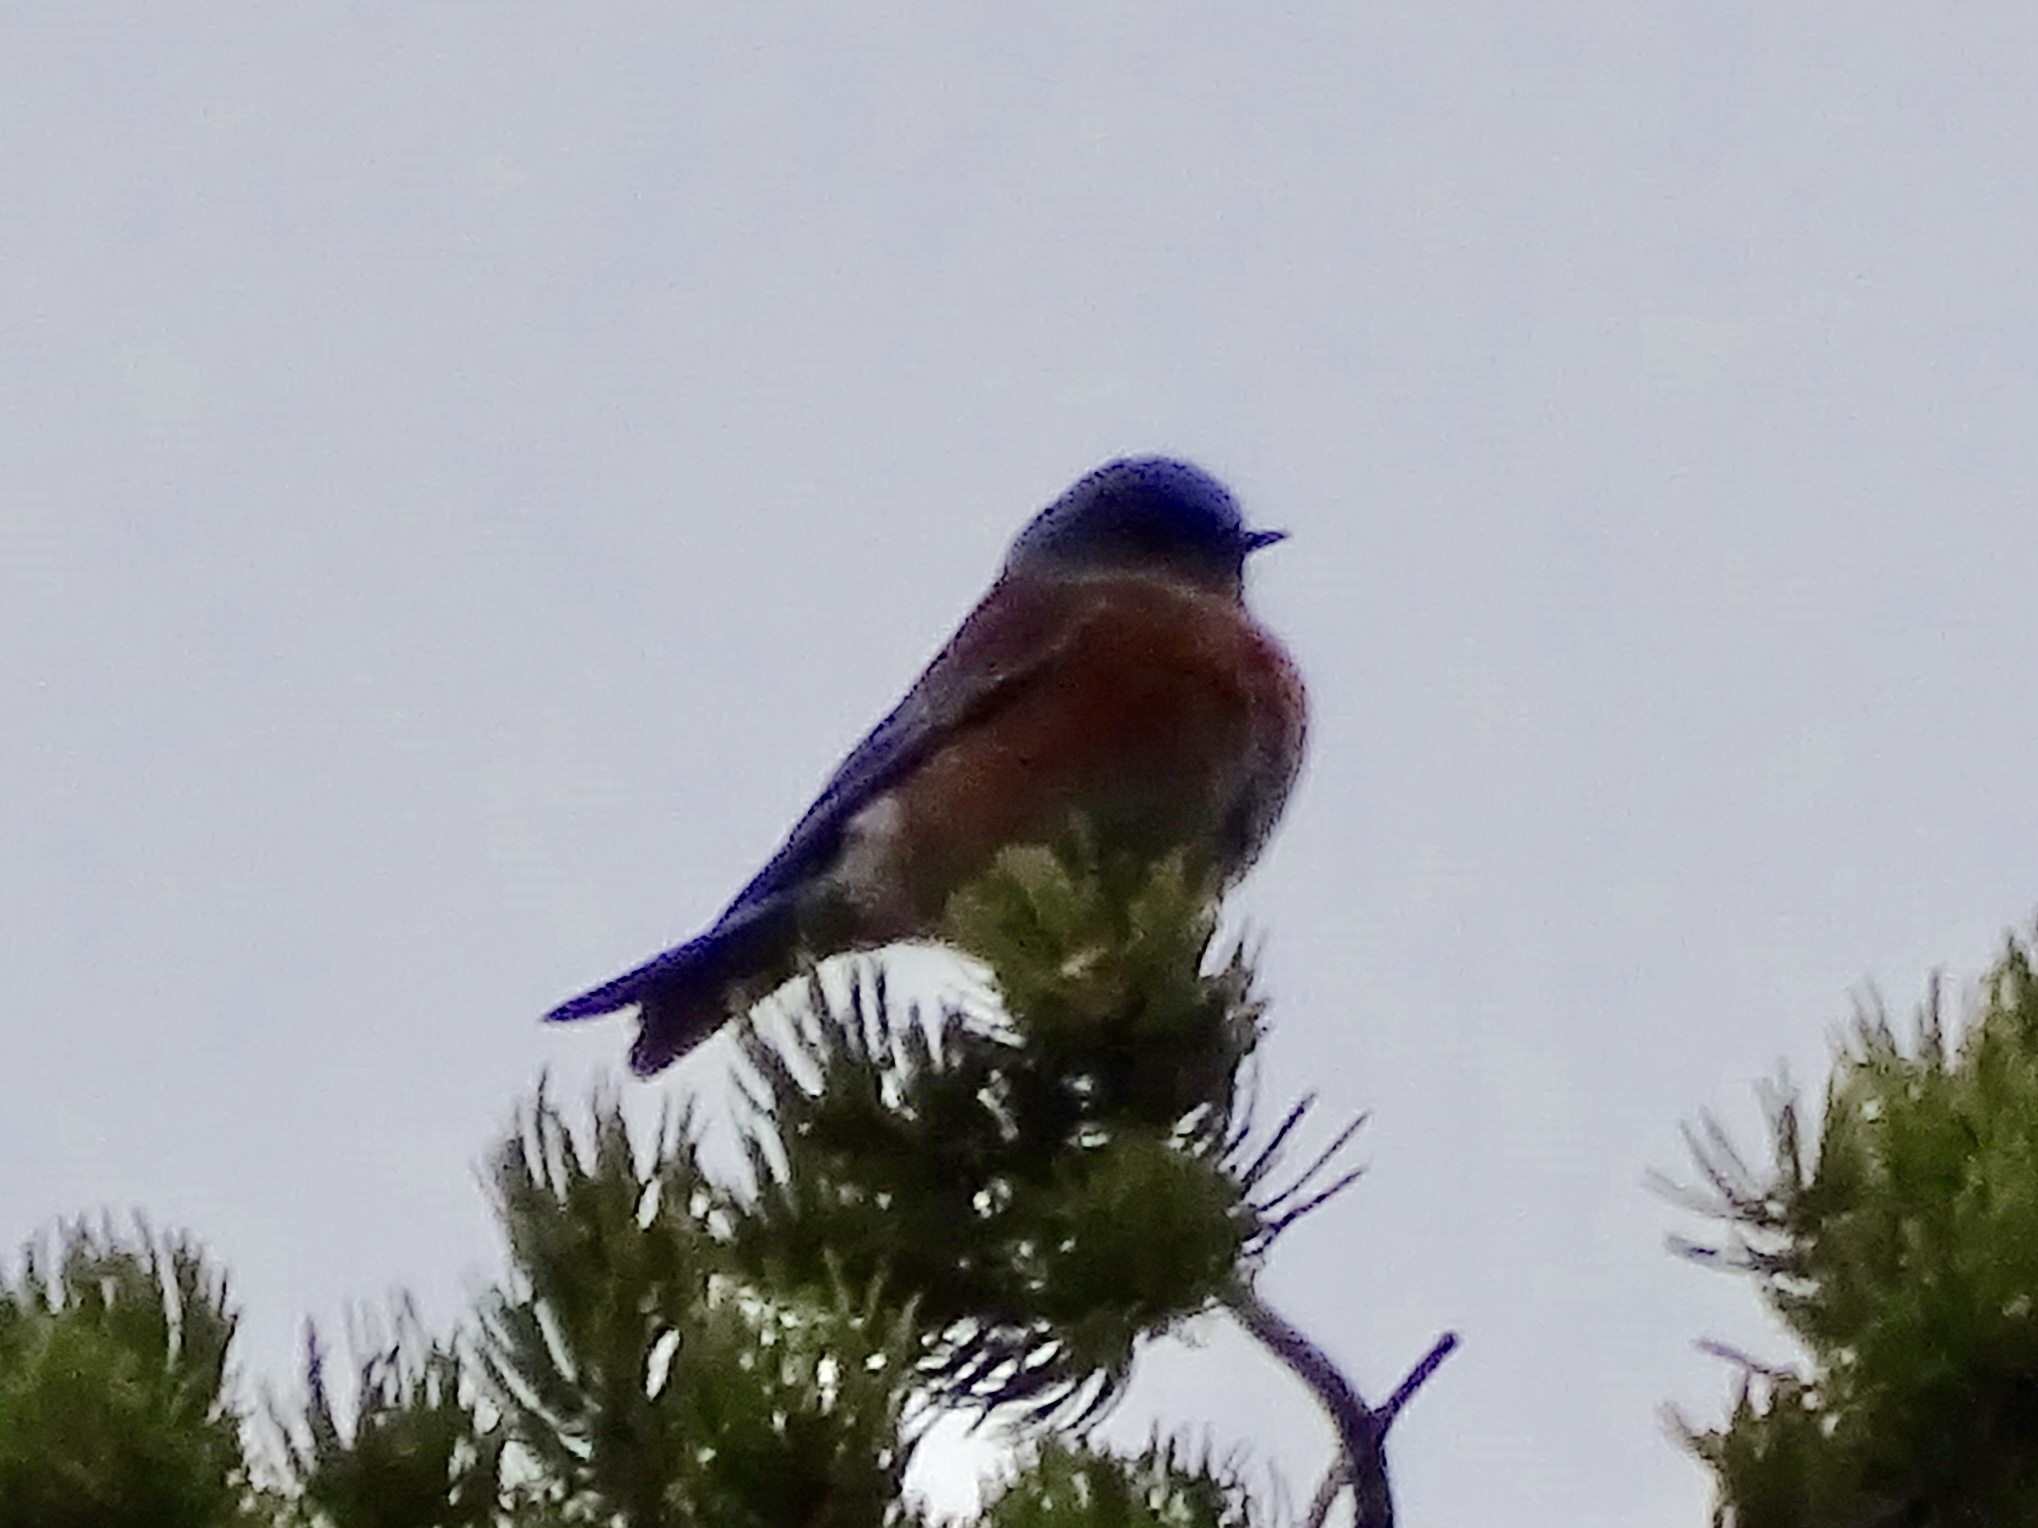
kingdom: Animalia
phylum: Chordata
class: Aves
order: Passeriformes
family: Turdidae
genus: Sialia
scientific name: Sialia mexicana
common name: Western bluebird
